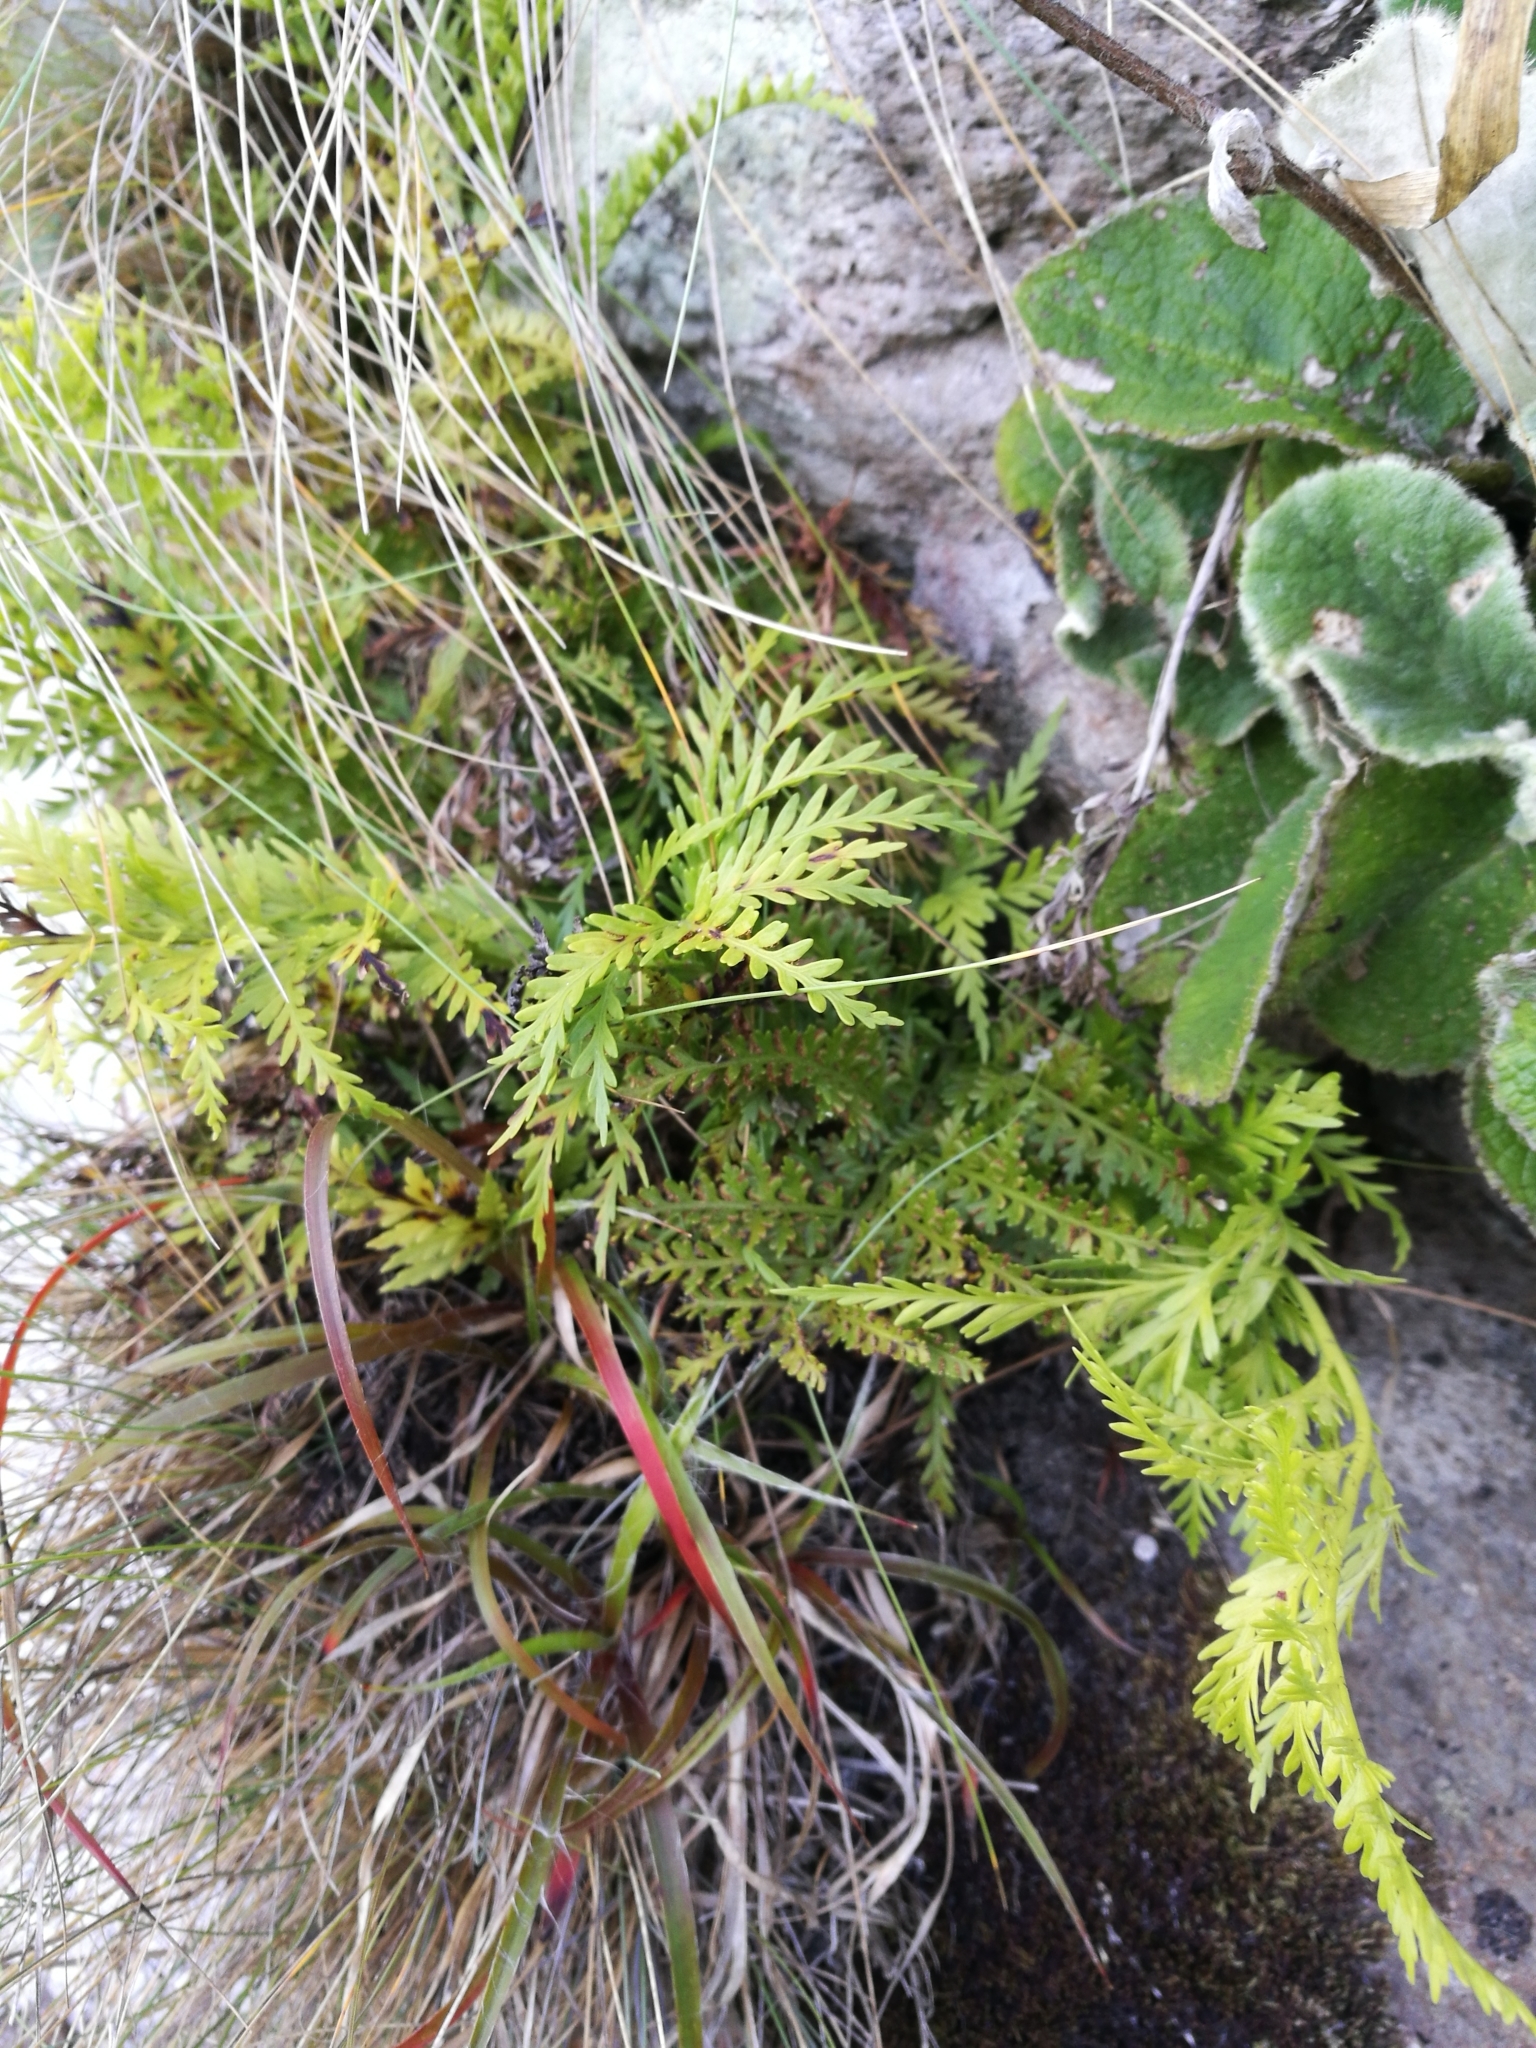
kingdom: Plantae
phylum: Tracheophyta
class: Polypodiopsida
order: Polypodiales
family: Aspleniaceae
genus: Asplenium
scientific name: Asplenium appendiculatum
